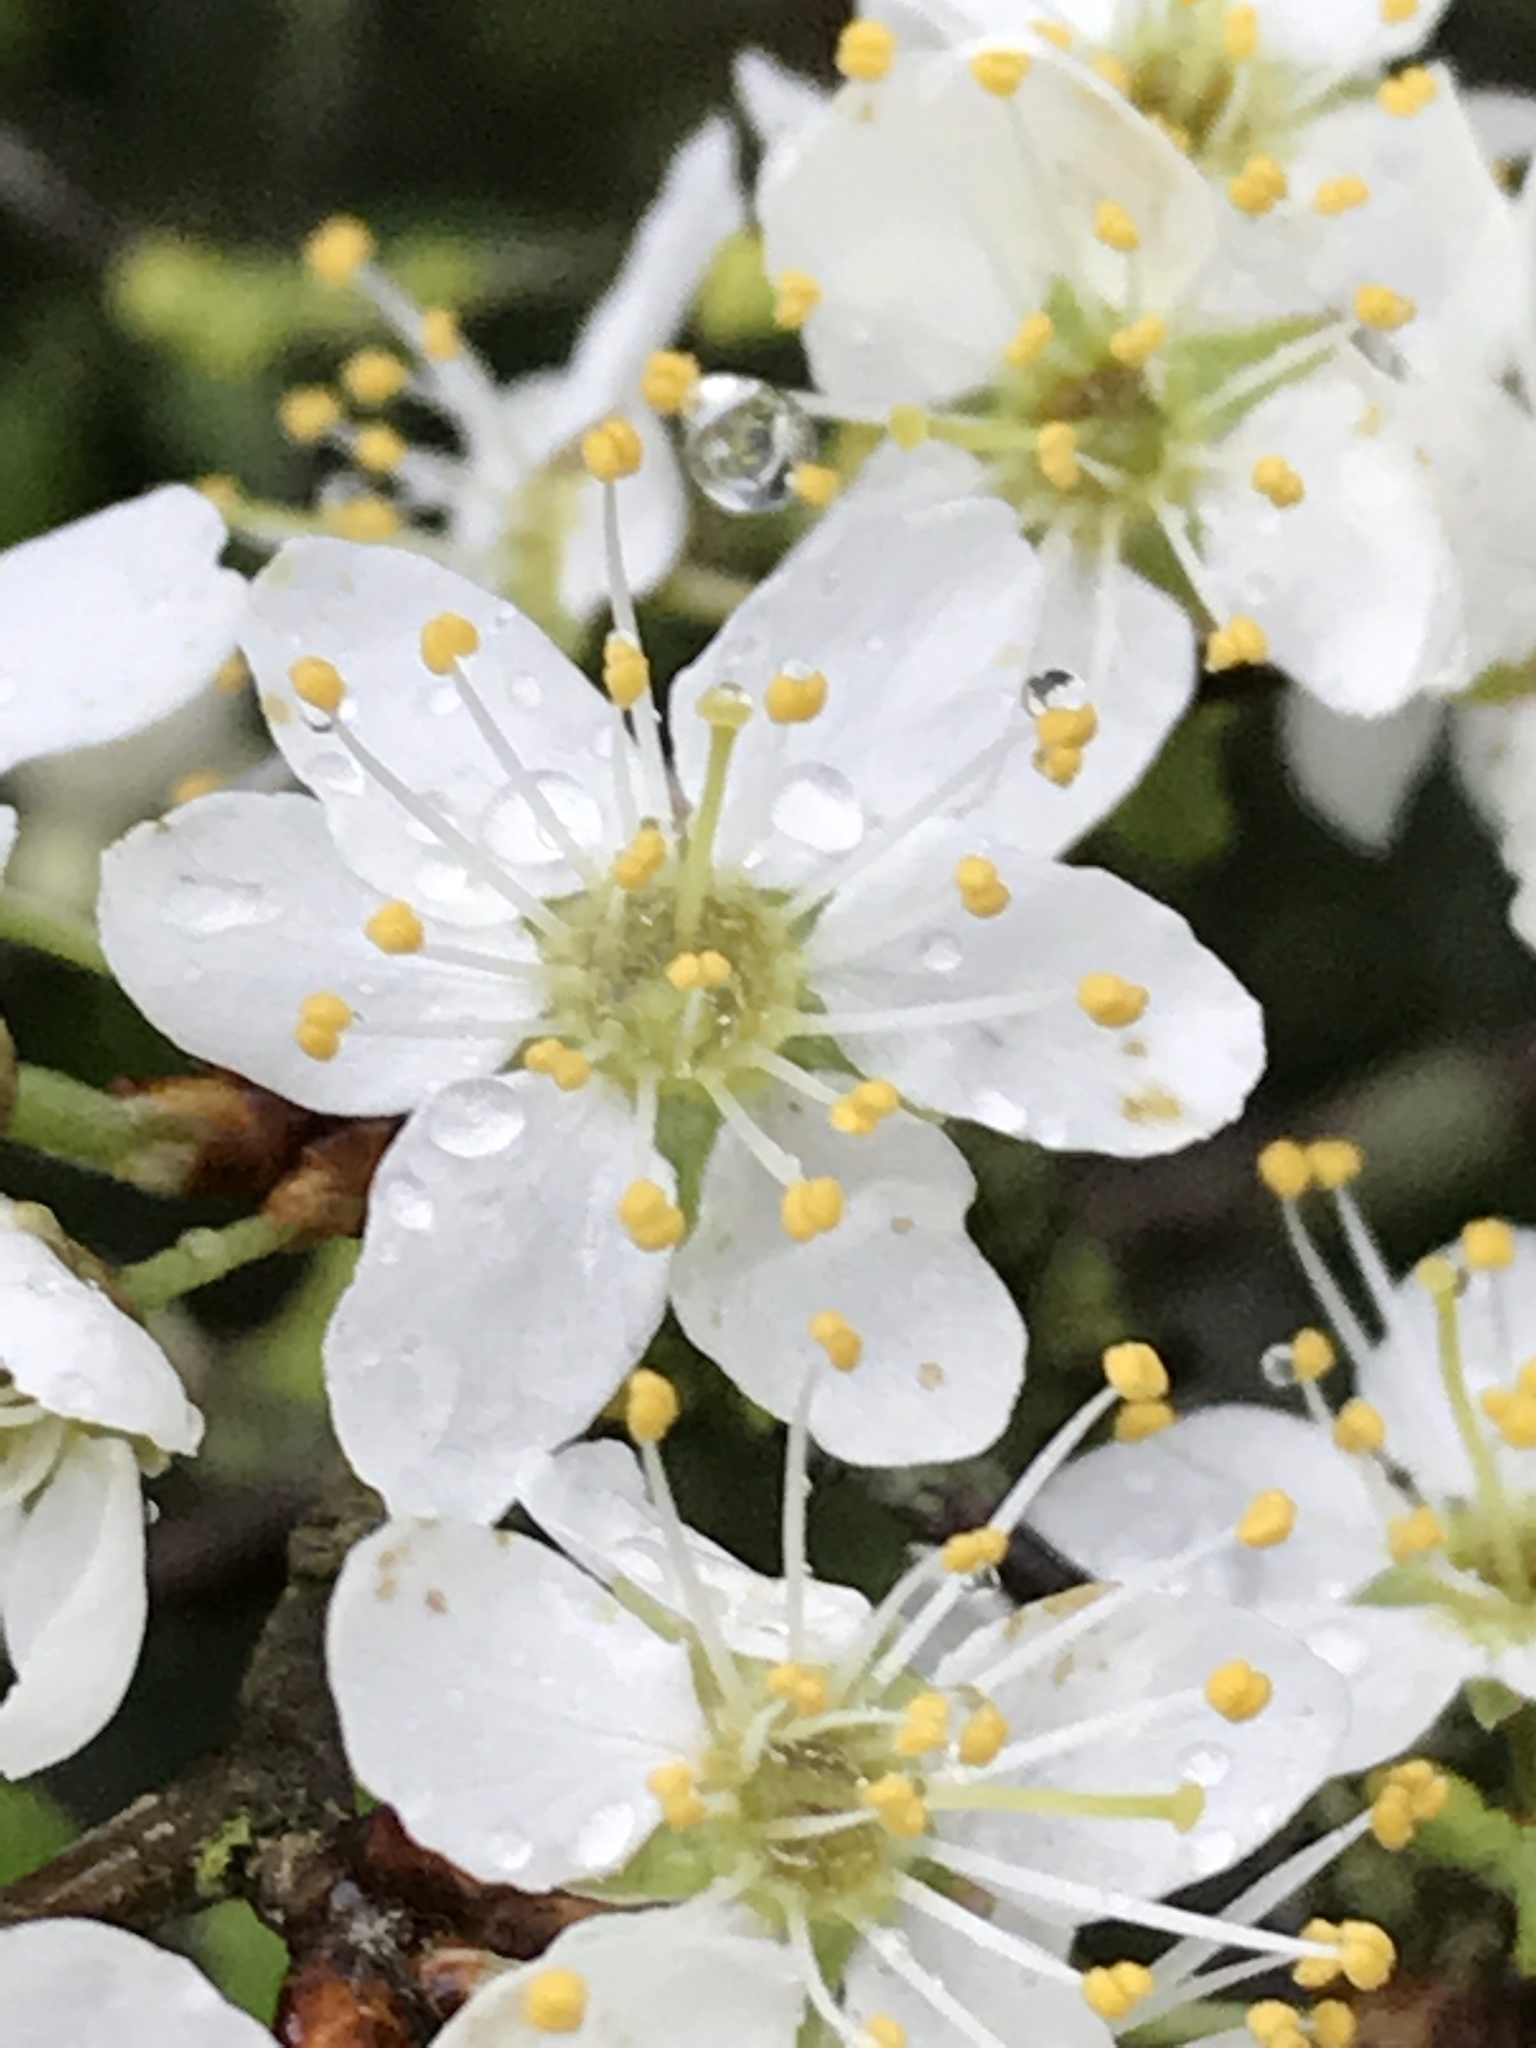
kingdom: Plantae
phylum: Tracheophyta
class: Magnoliopsida
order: Rosales
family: Rosaceae
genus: Prunus
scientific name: Prunus spinosa
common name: Blackthorn
